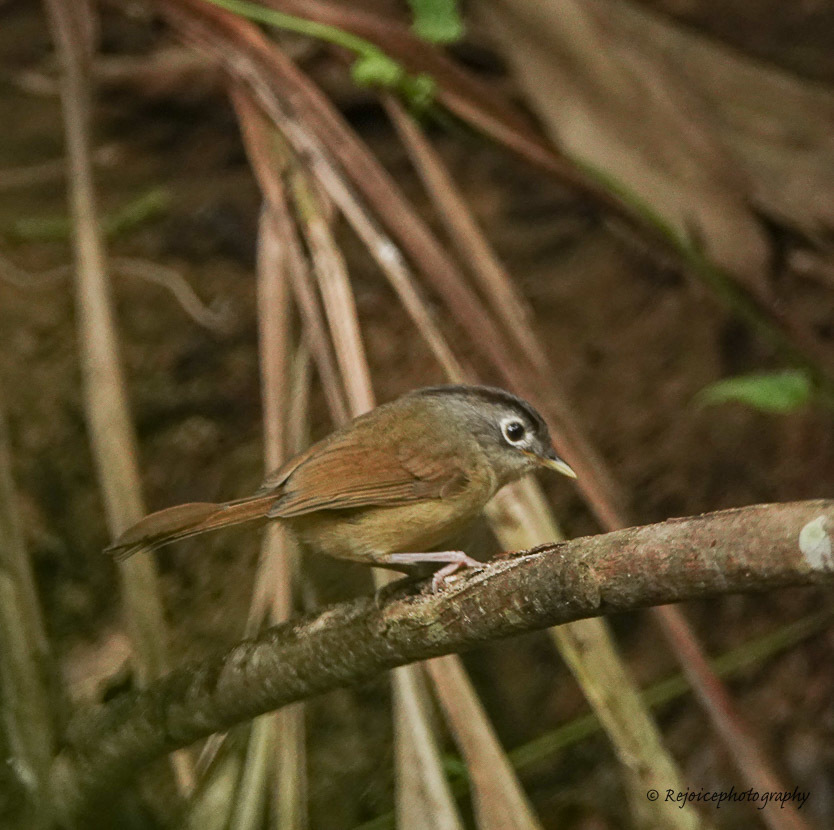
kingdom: Animalia
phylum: Chordata
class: Aves
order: Passeriformes
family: Pellorneidae
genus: Alcippe
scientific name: Alcippe nipalensis
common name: Nepal fulvetta
